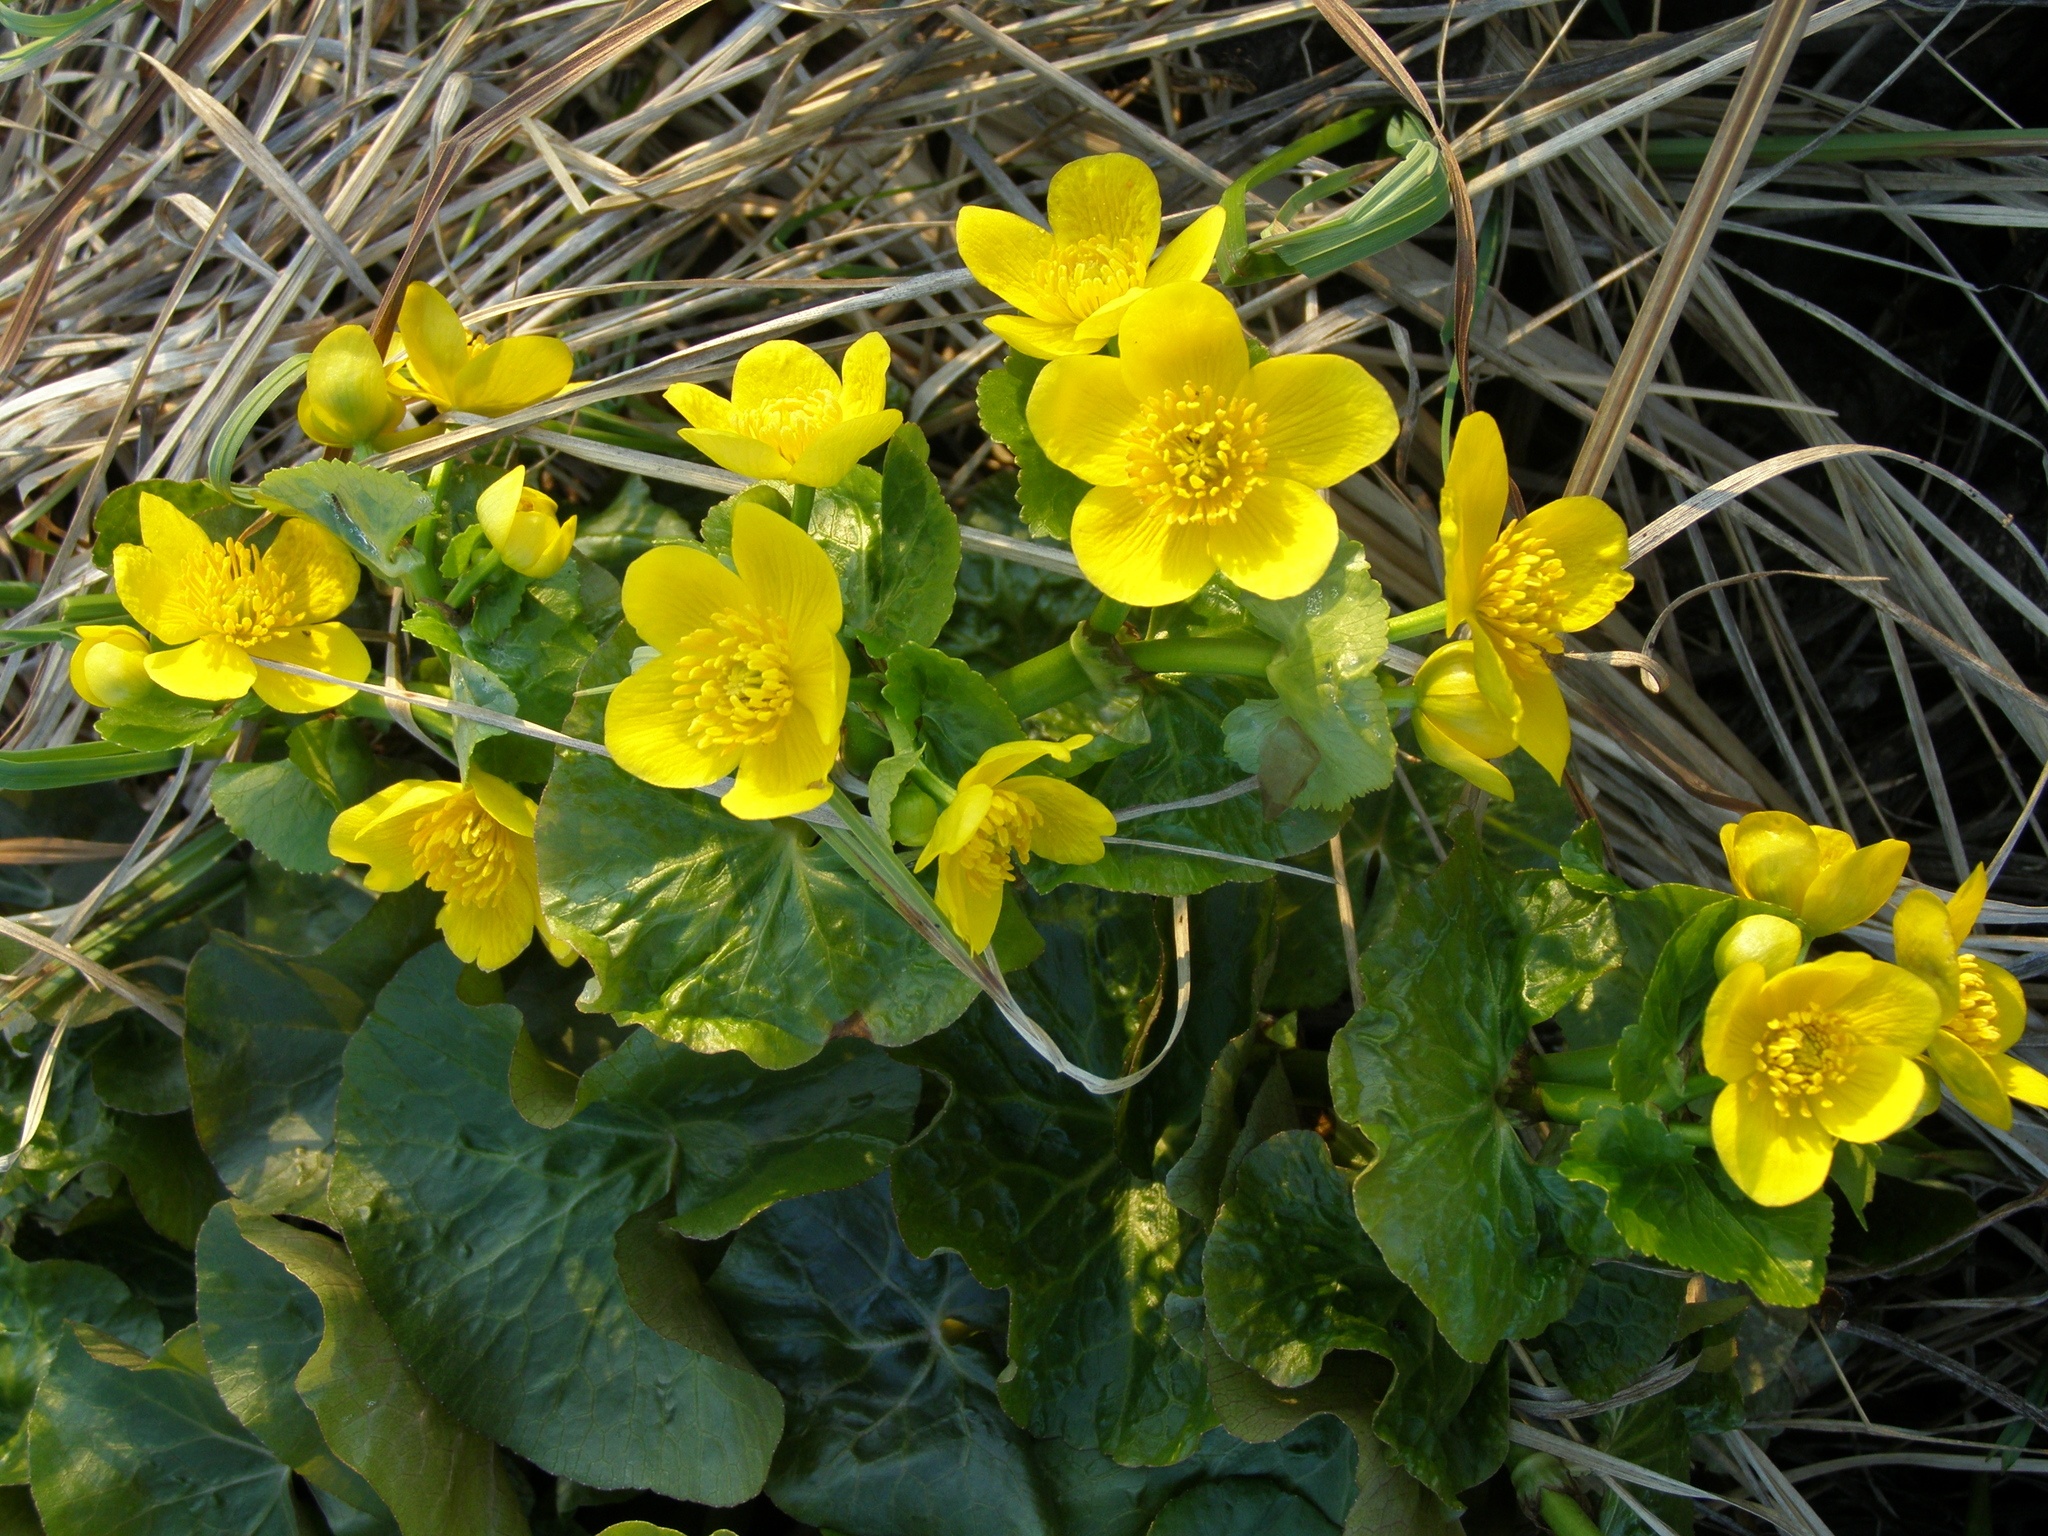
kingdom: Plantae
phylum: Tracheophyta
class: Magnoliopsida
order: Ranunculales
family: Ranunculaceae
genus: Caltha
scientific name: Caltha palustris
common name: Marsh marigold
